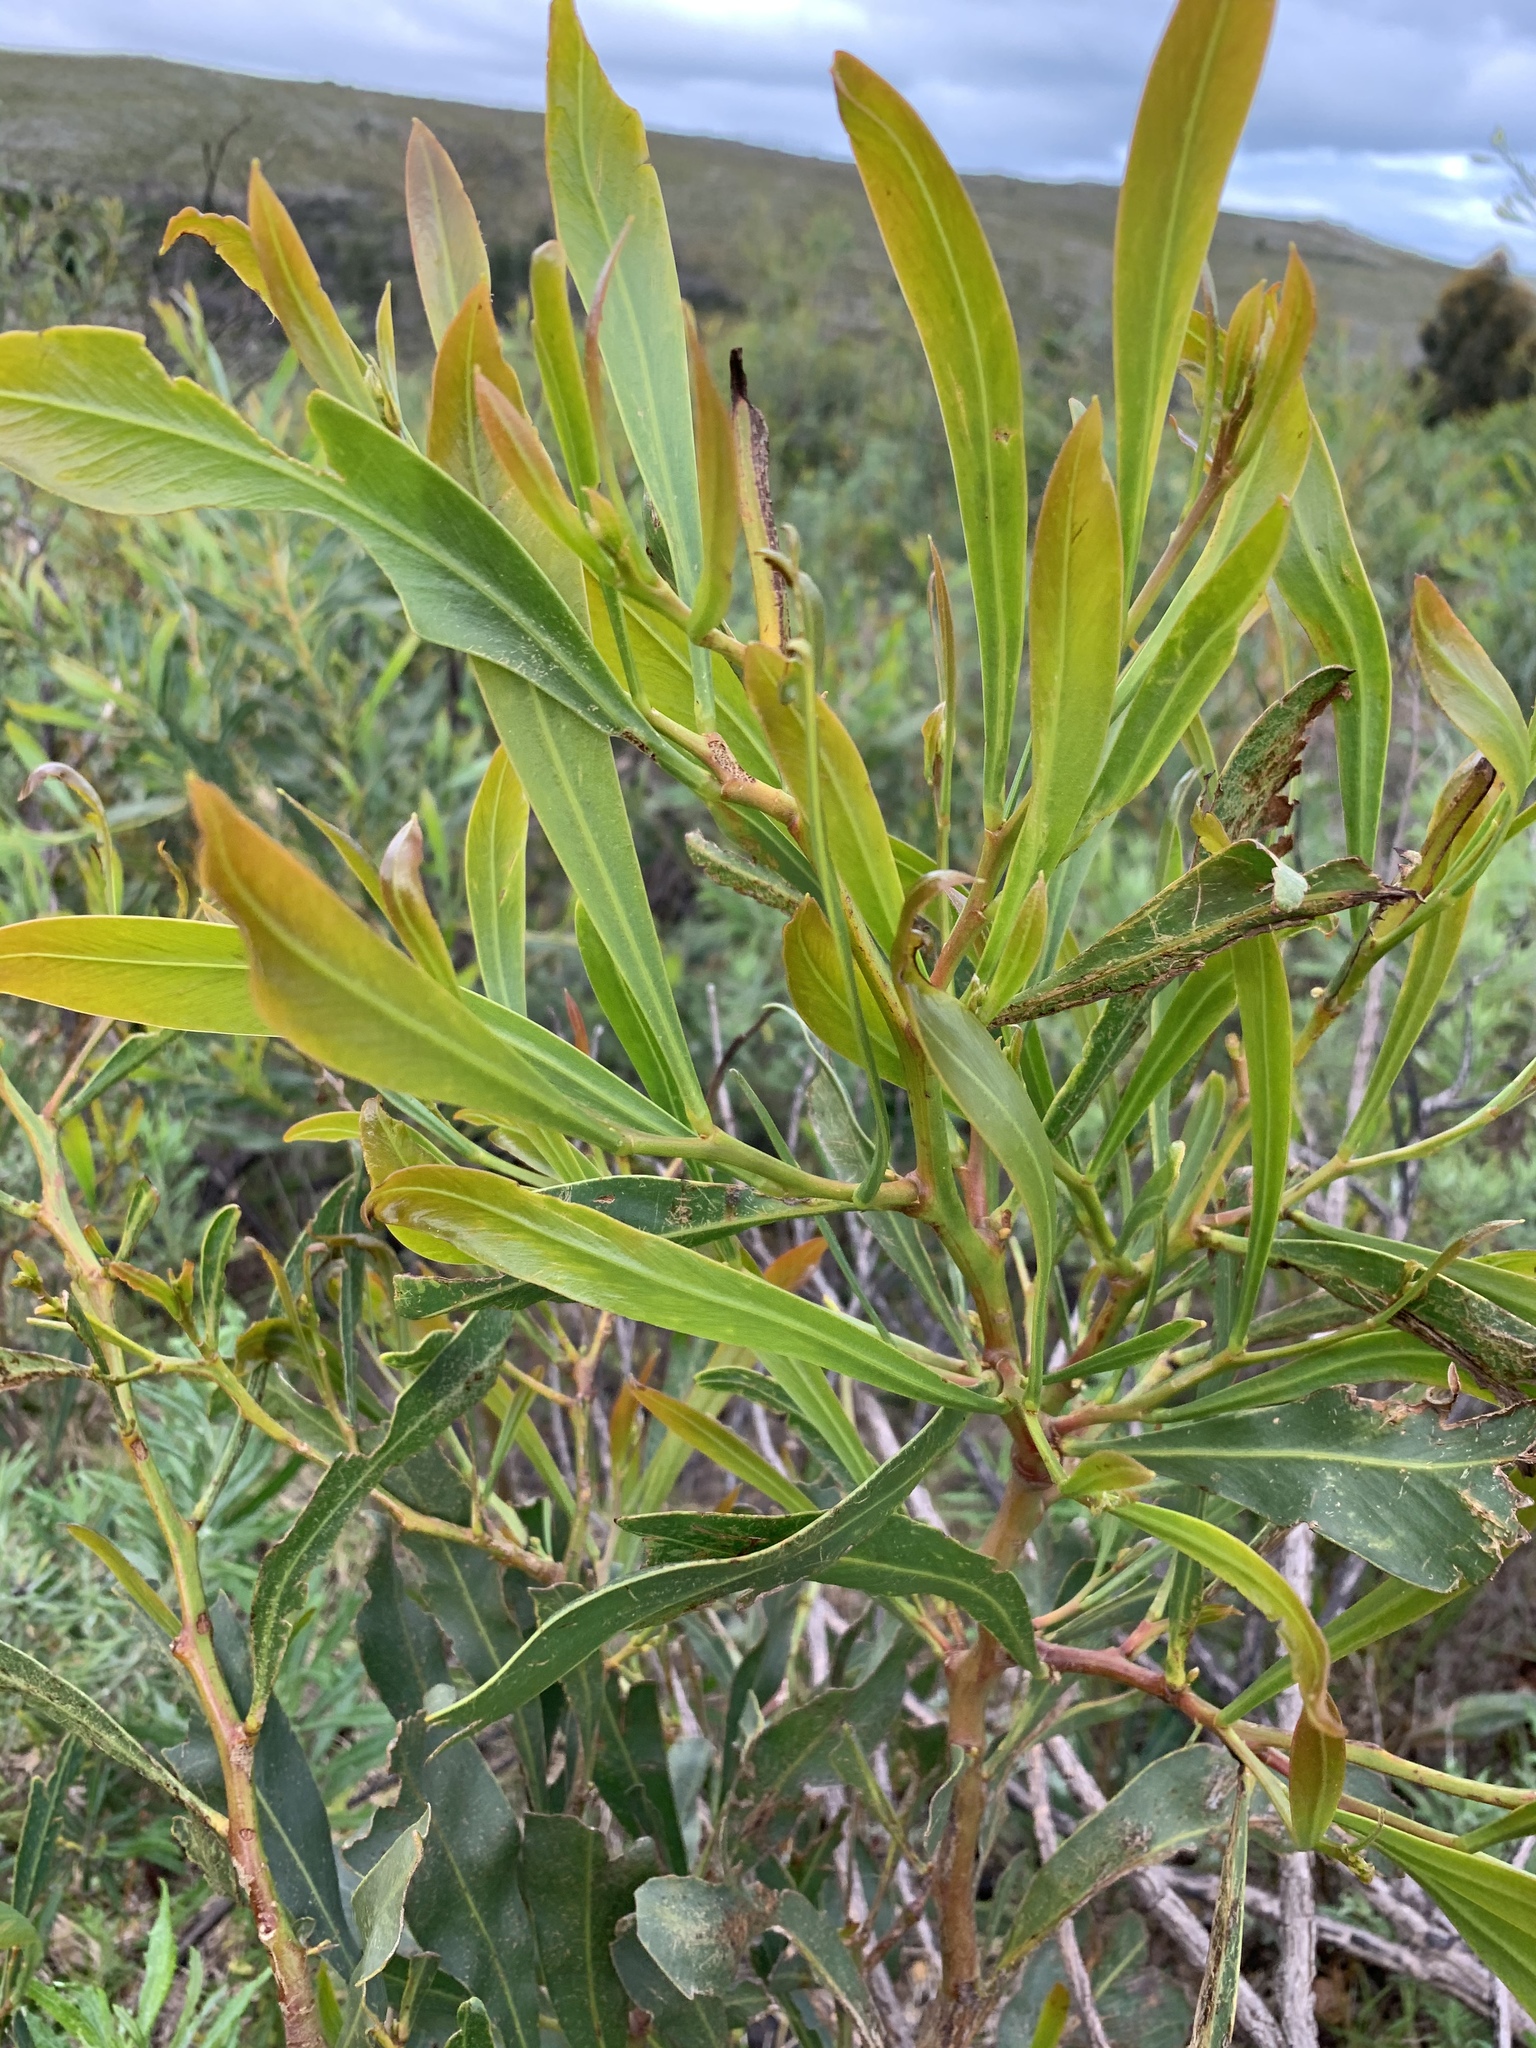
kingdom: Plantae
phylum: Tracheophyta
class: Magnoliopsida
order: Fabales
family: Fabaceae
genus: Acacia
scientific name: Acacia saligna
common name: Orange wattle
